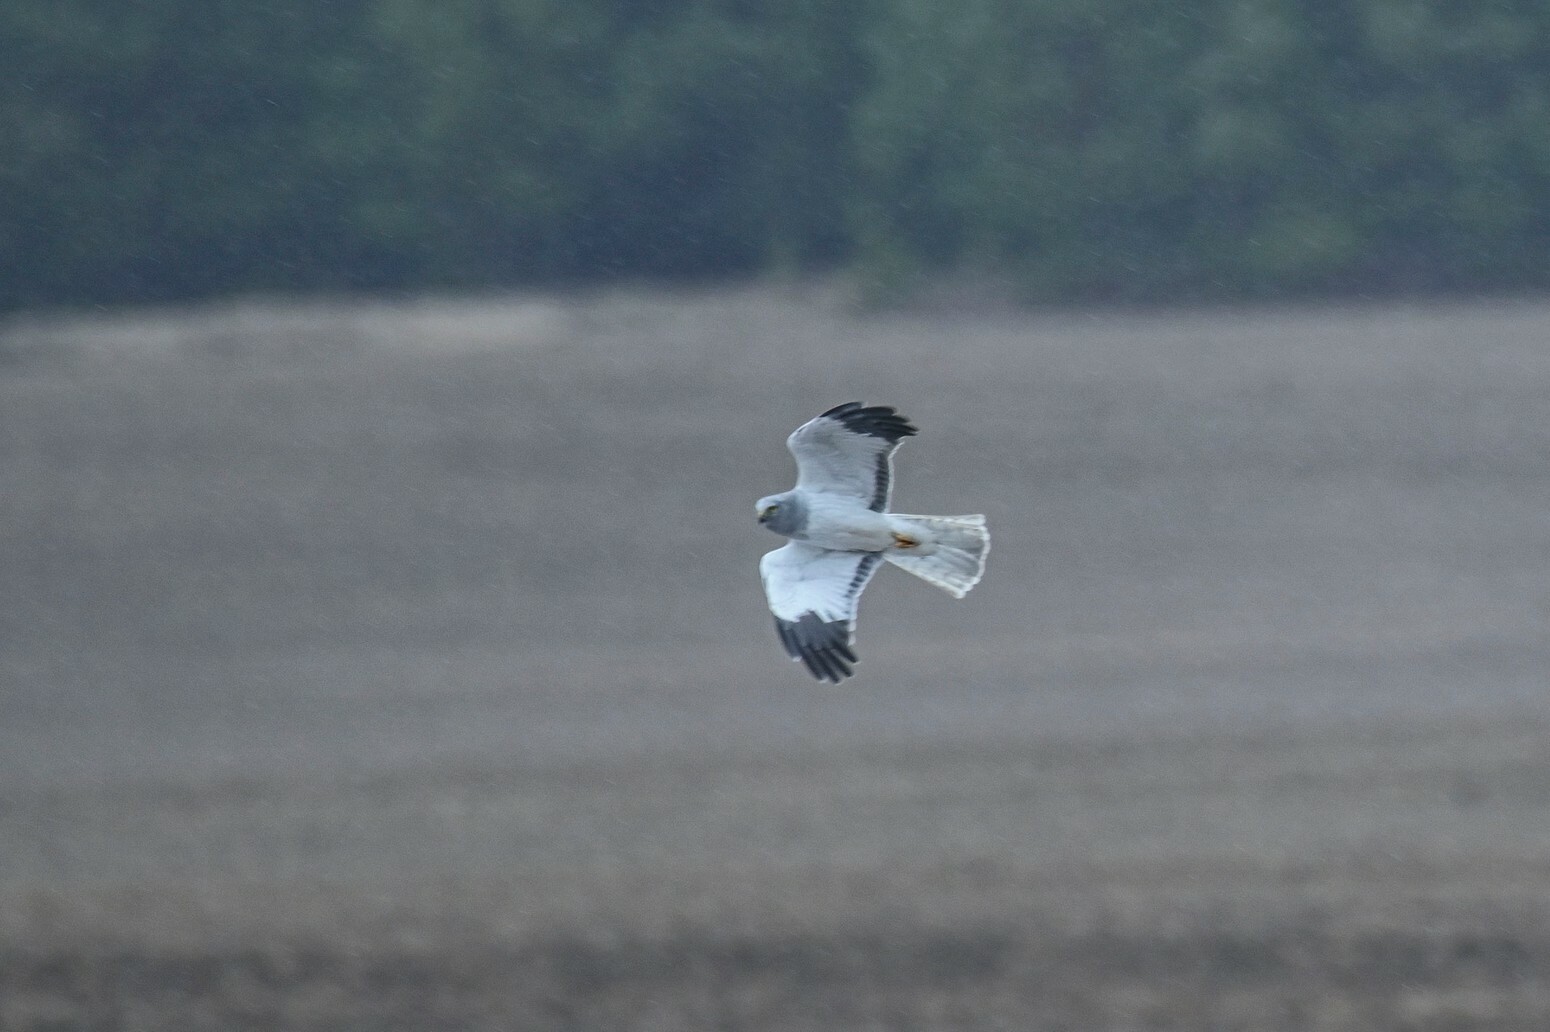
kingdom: Animalia
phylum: Chordata
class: Aves
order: Accipitriformes
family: Accipitridae
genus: Circus
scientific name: Circus cyaneus
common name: Hen harrier
